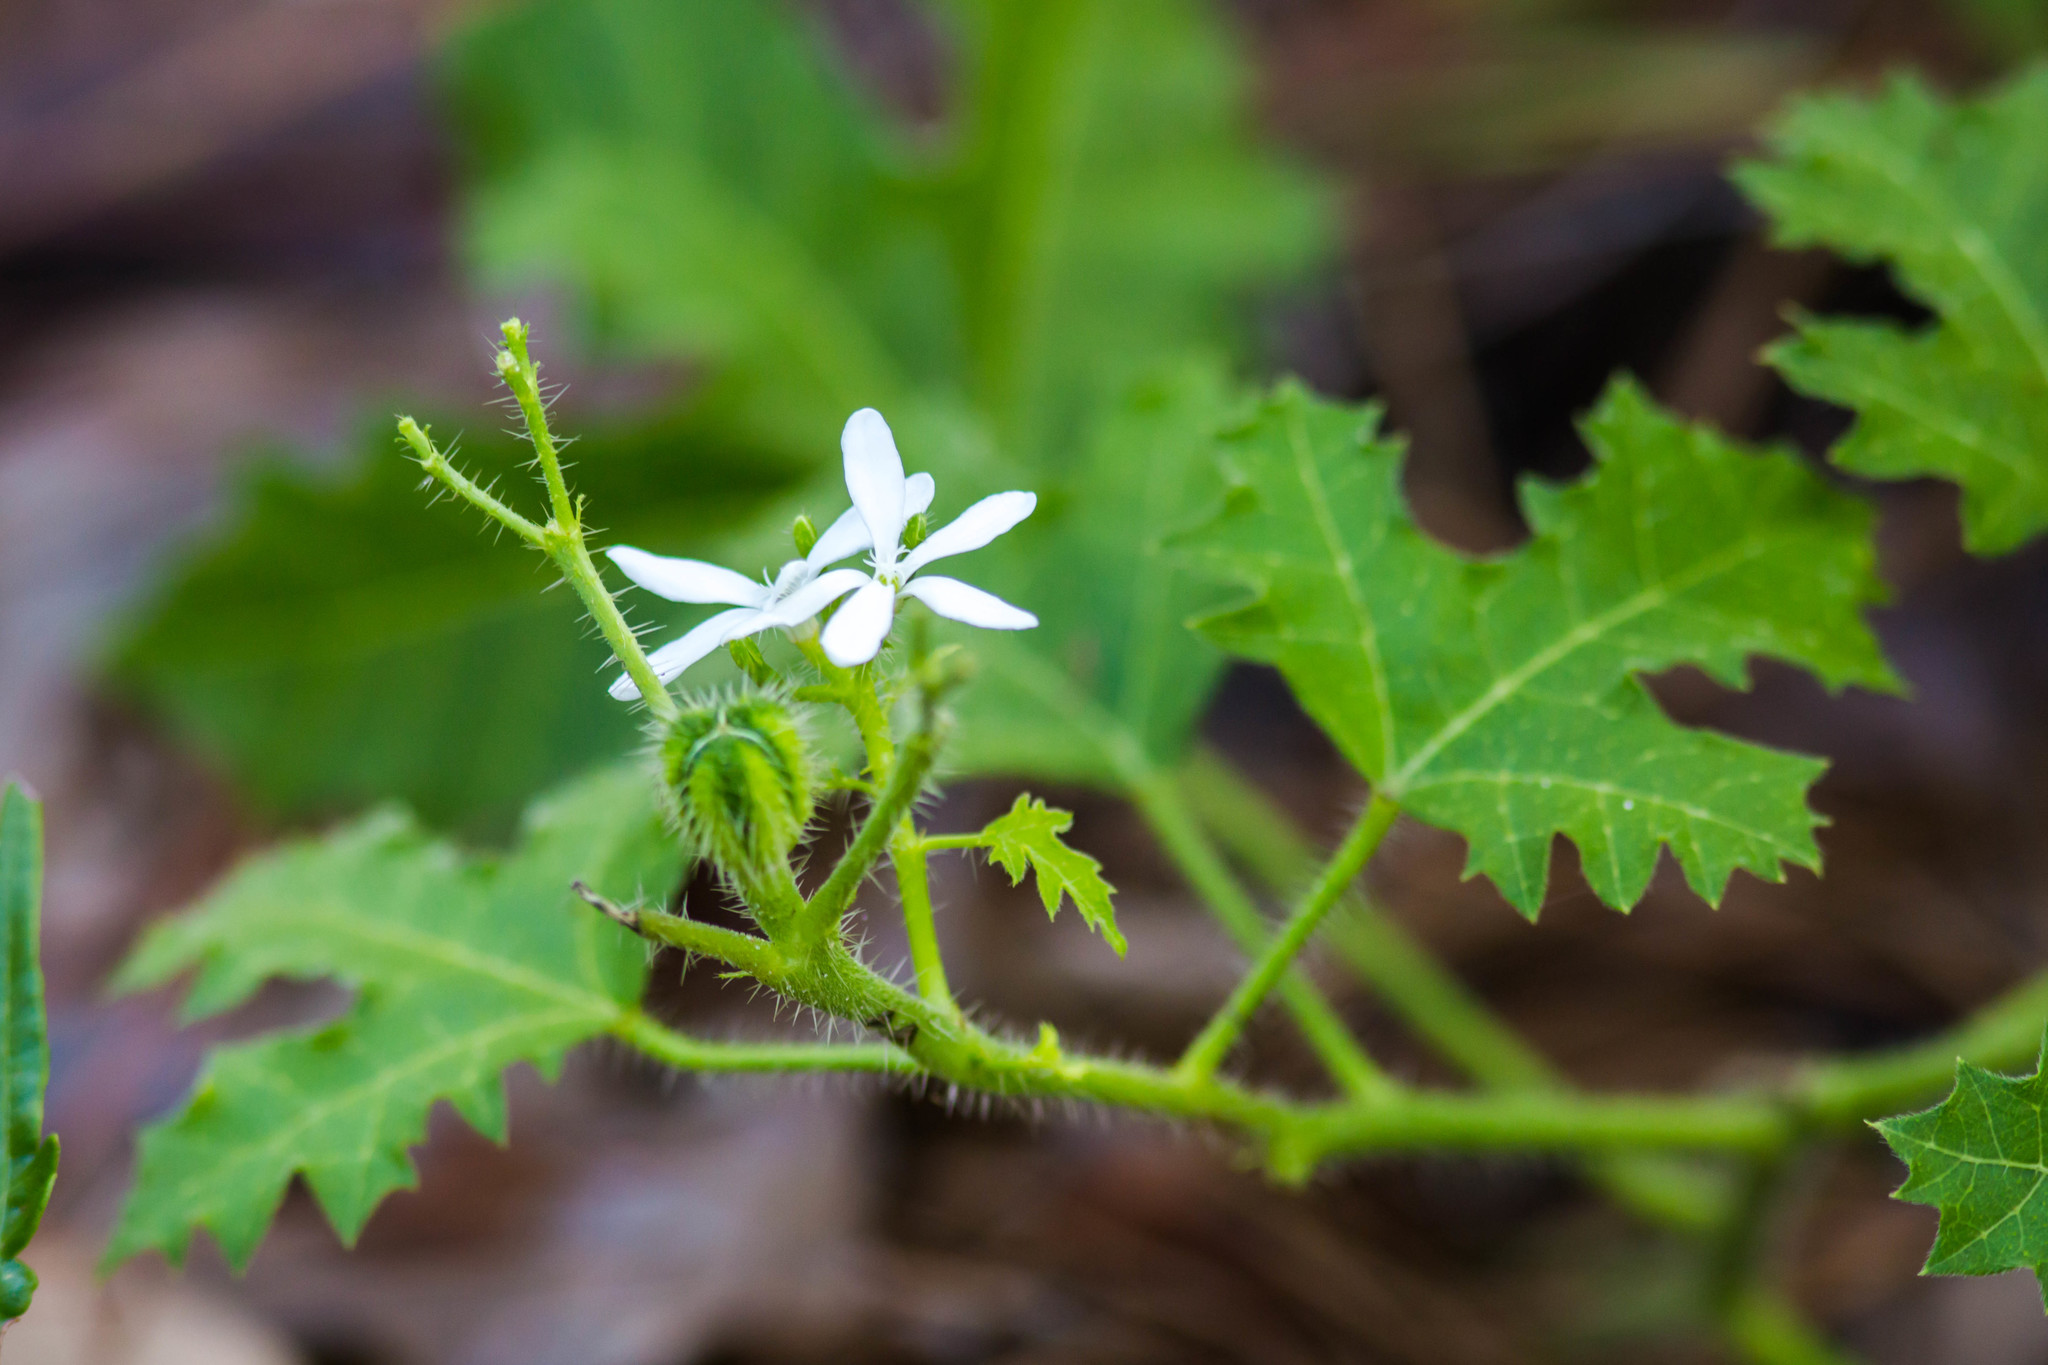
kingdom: Plantae
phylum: Tracheophyta
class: Magnoliopsida
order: Malpighiales
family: Euphorbiaceae
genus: Cnidoscolus
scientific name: Cnidoscolus stimulosus
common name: Bull-nettle
